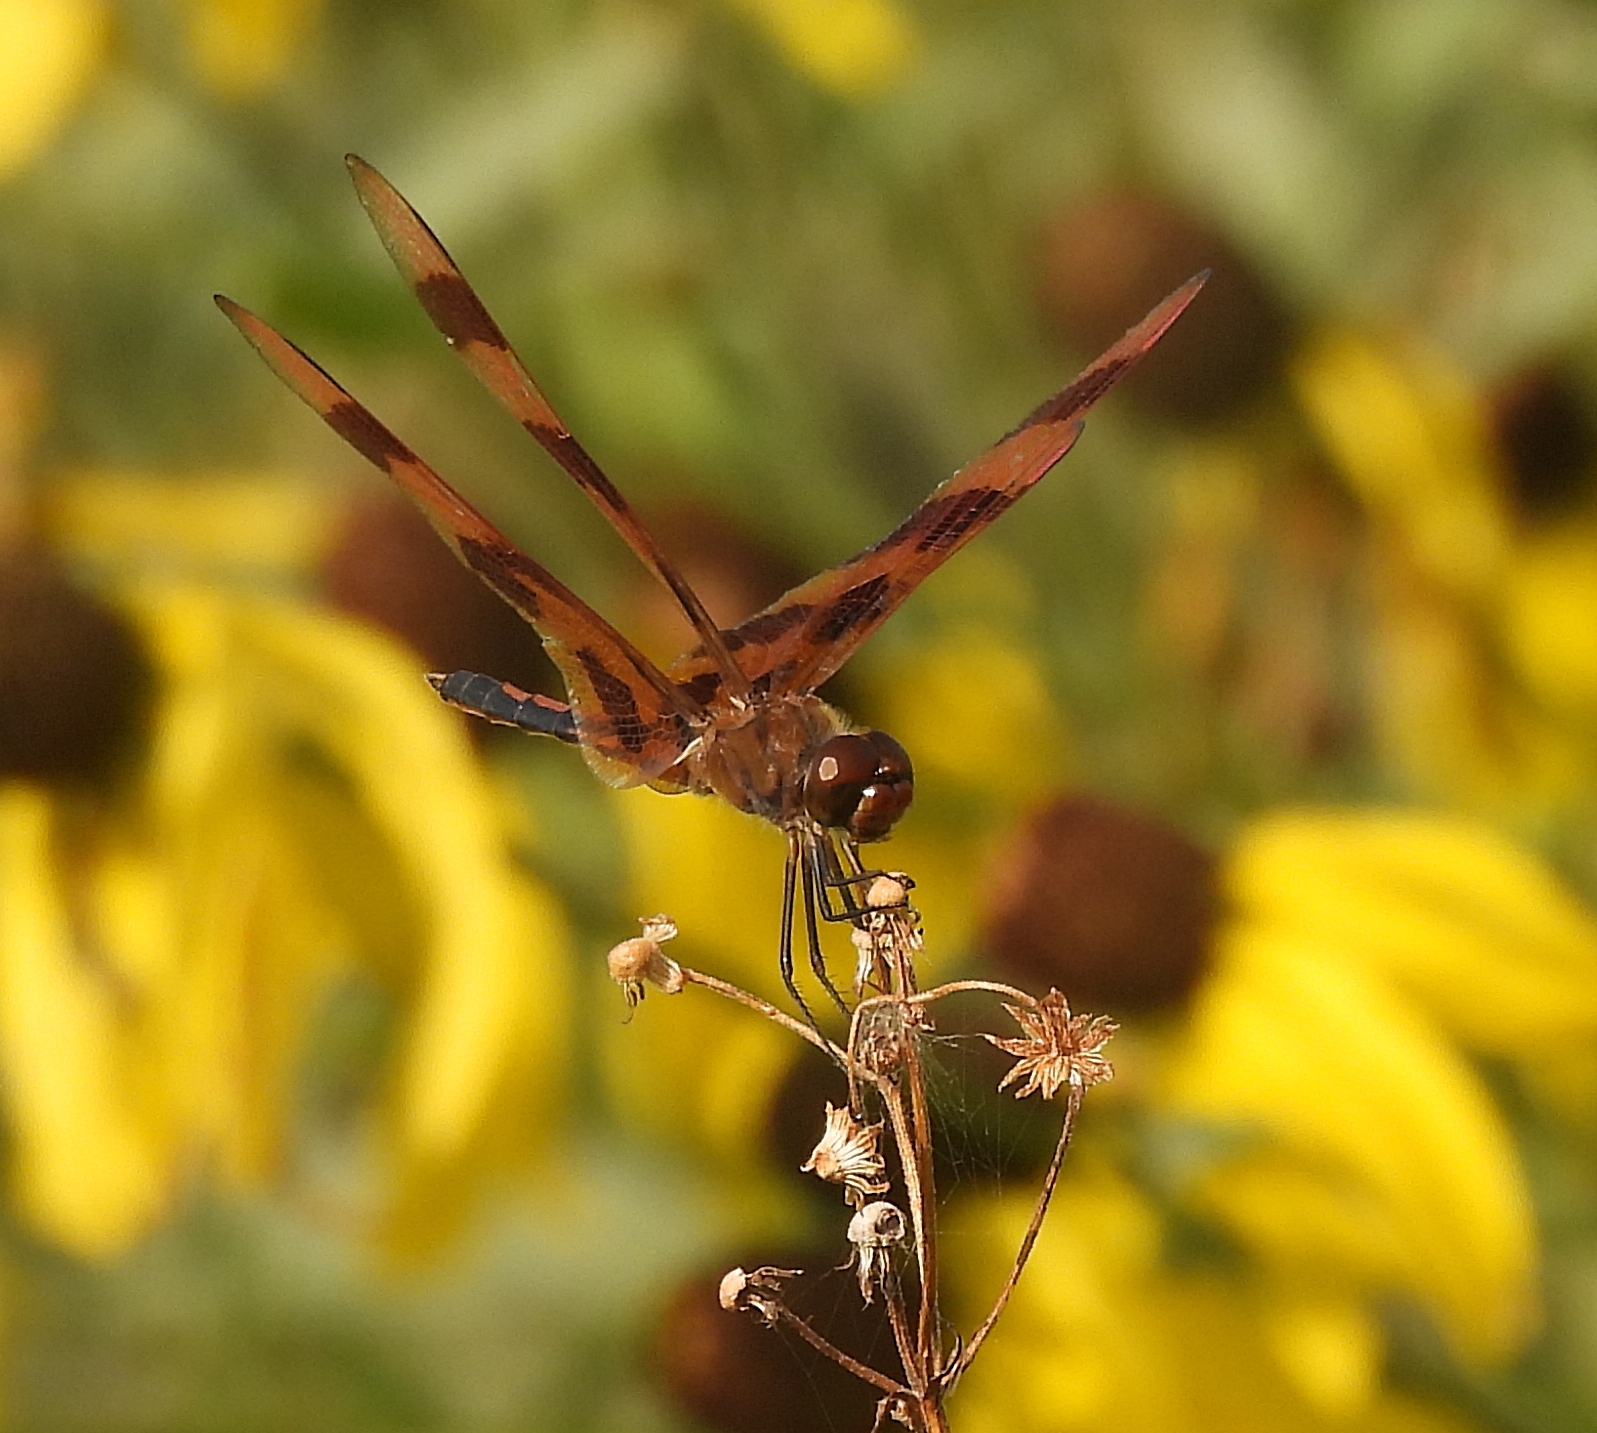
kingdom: Animalia
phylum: Arthropoda
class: Insecta
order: Odonata
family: Libellulidae
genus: Celithemis
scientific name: Celithemis eponina
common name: Halloween pennant
